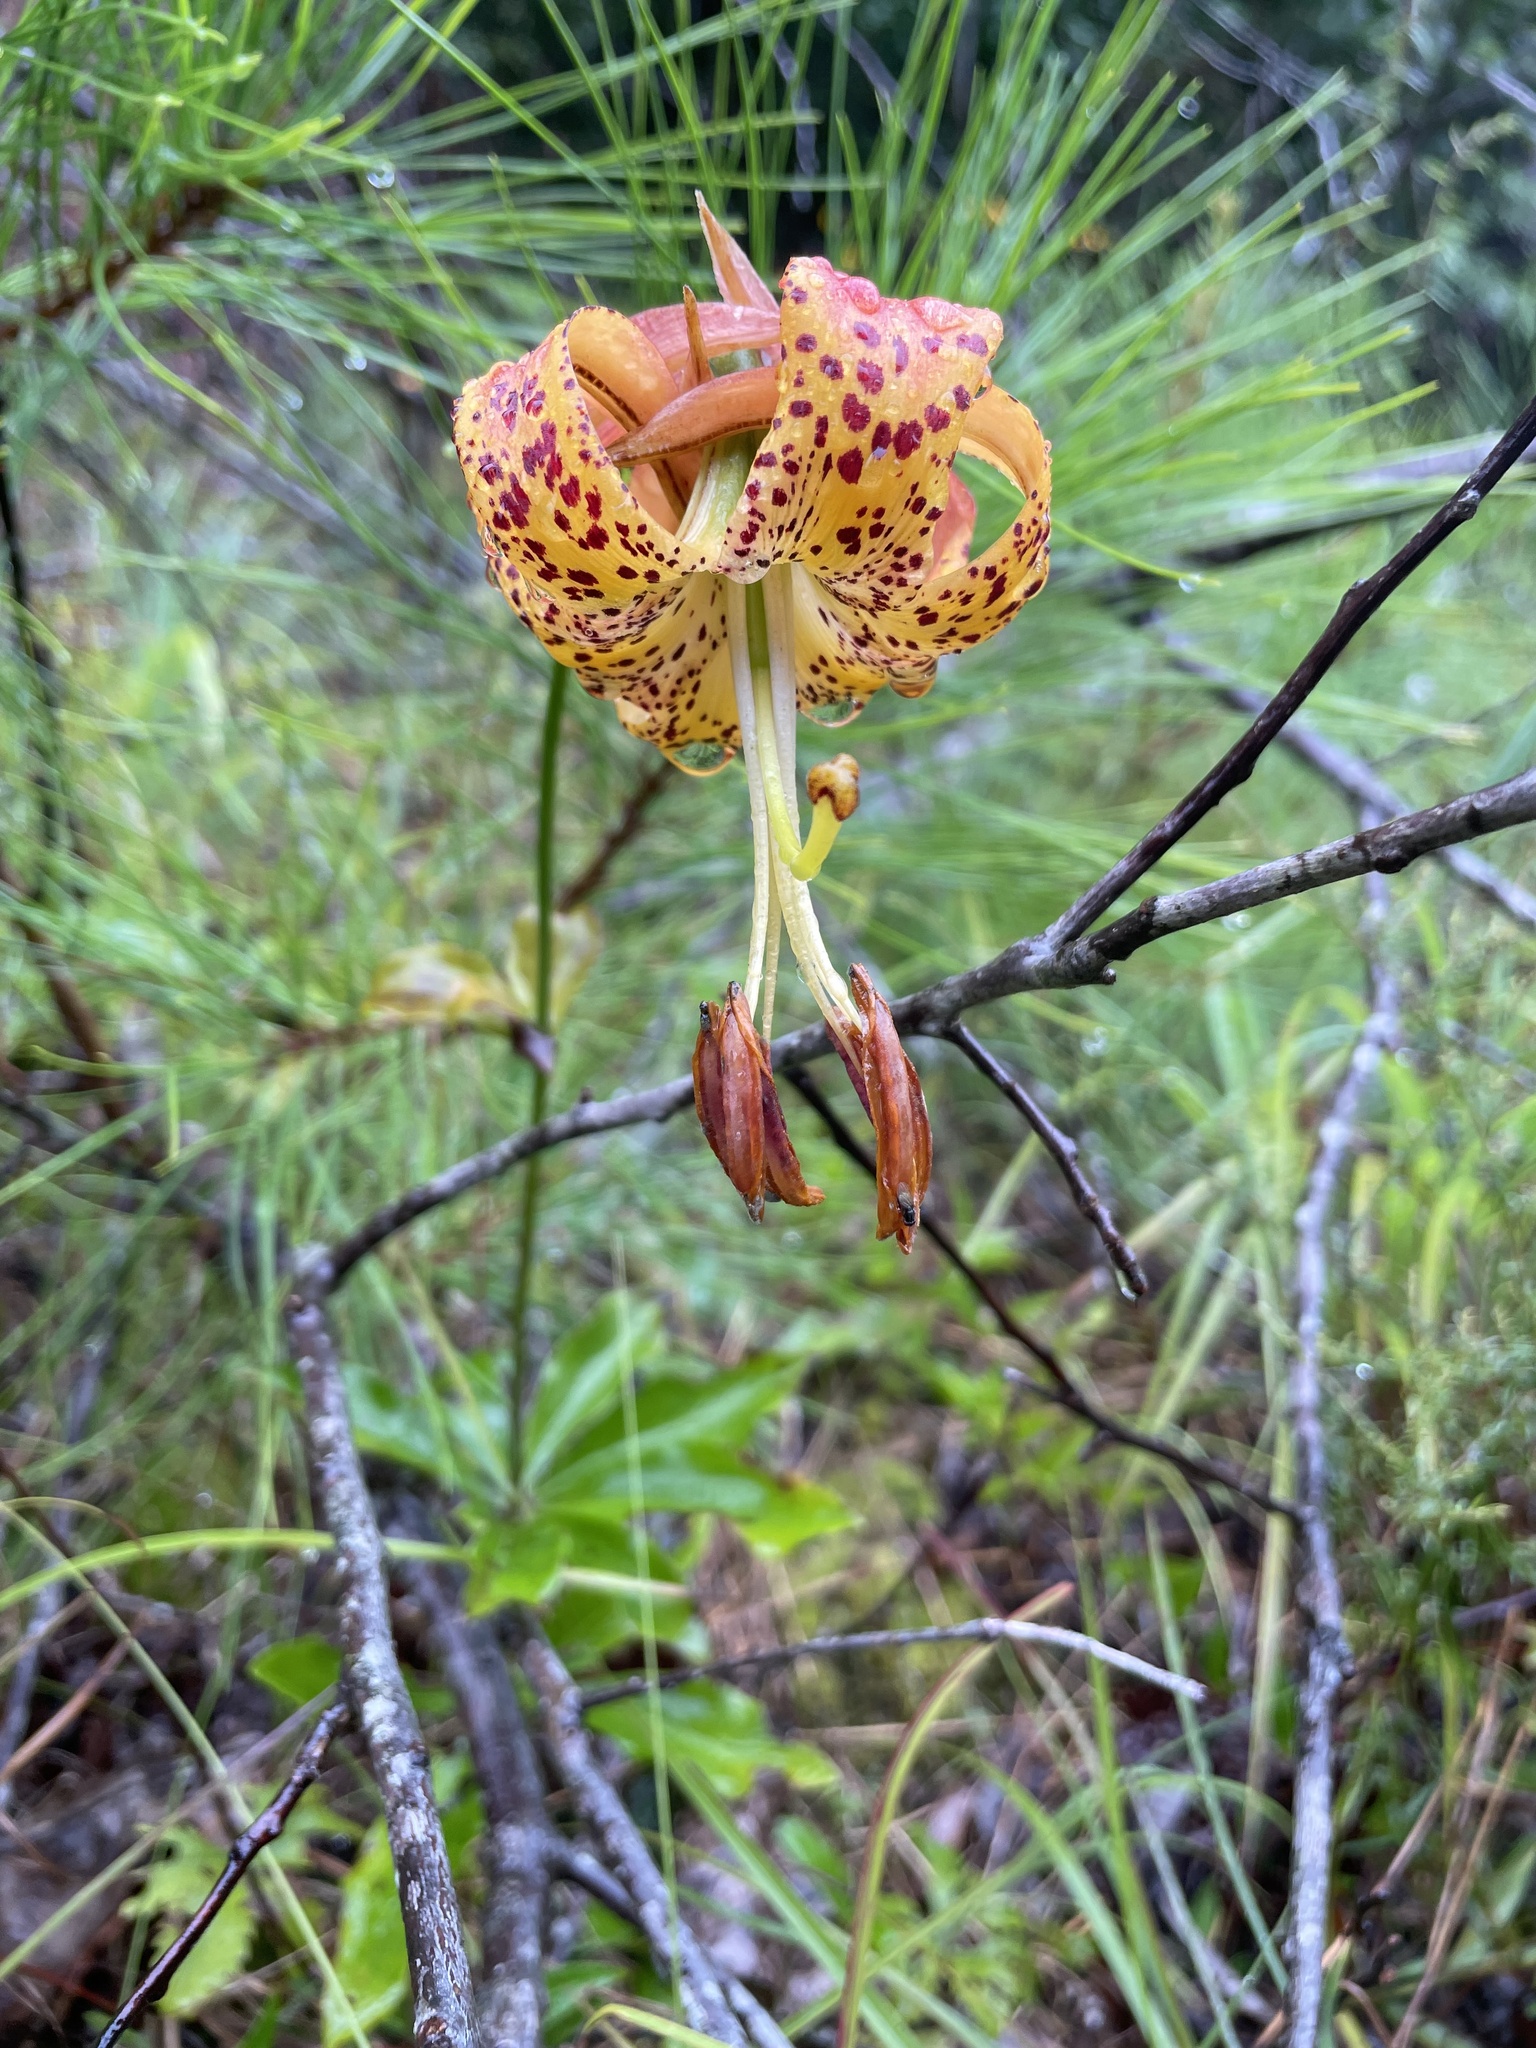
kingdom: Plantae
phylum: Tracheophyta
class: Liliopsida
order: Liliales
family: Liliaceae
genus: Lilium
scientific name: Lilium michauxii
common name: Carolina lily
